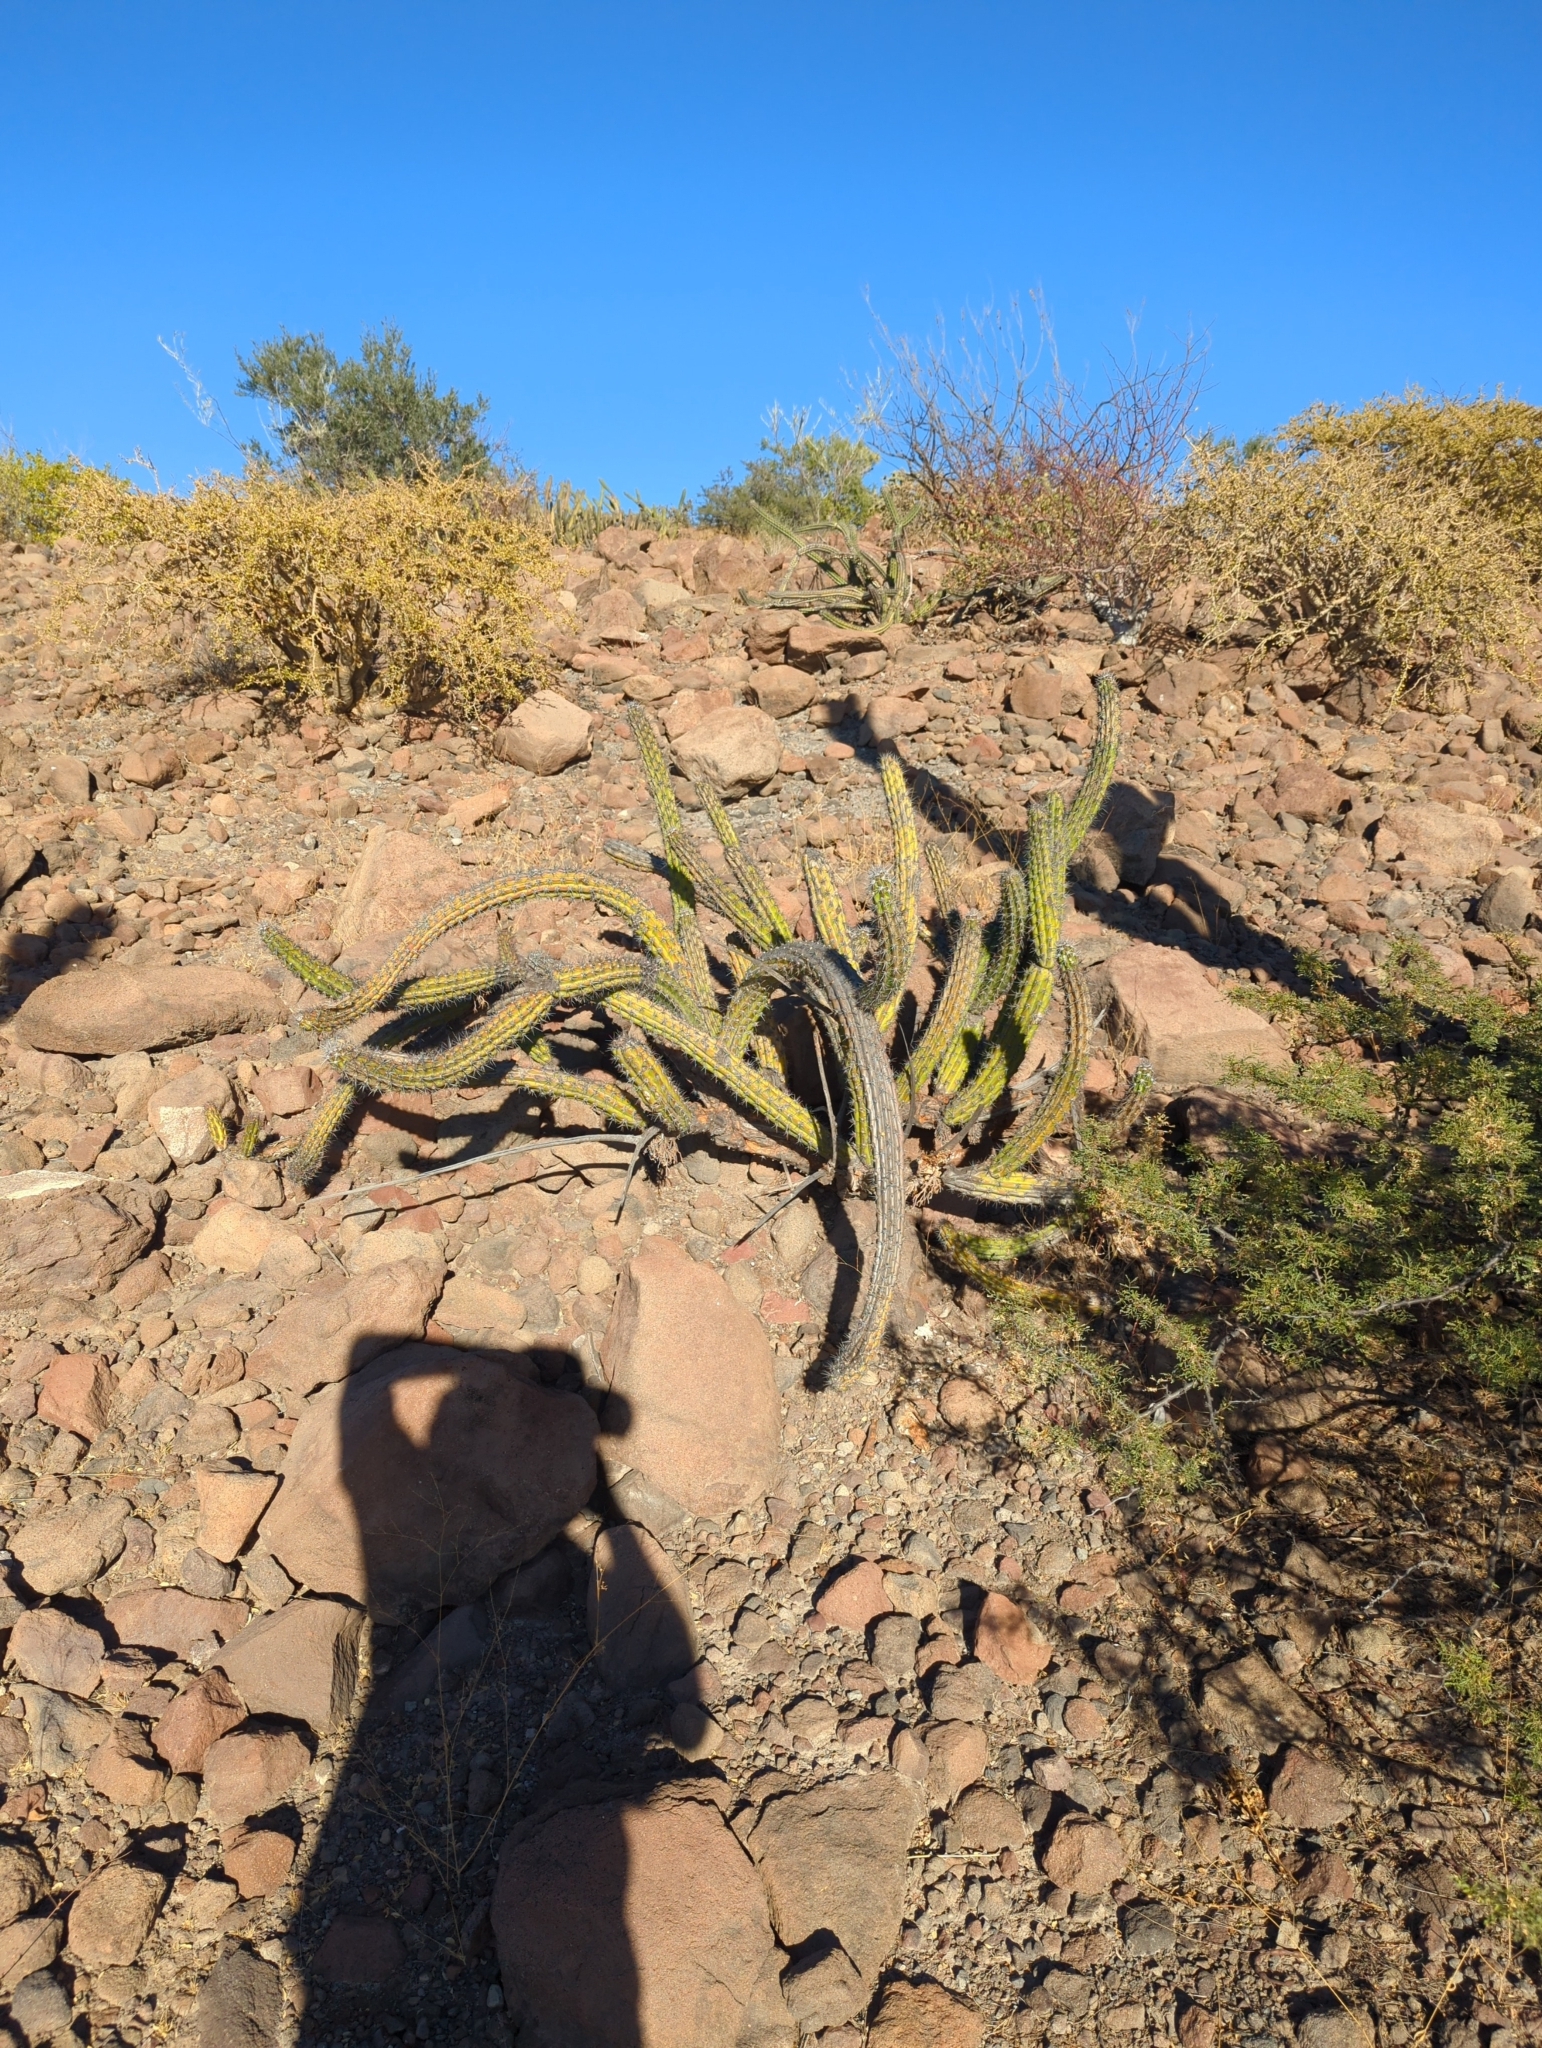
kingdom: Plantae
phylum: Tracheophyta
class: Magnoliopsida
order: Caryophyllales
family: Cactaceae
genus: Stenocereus
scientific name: Stenocereus gummosus
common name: Dagger cactus
